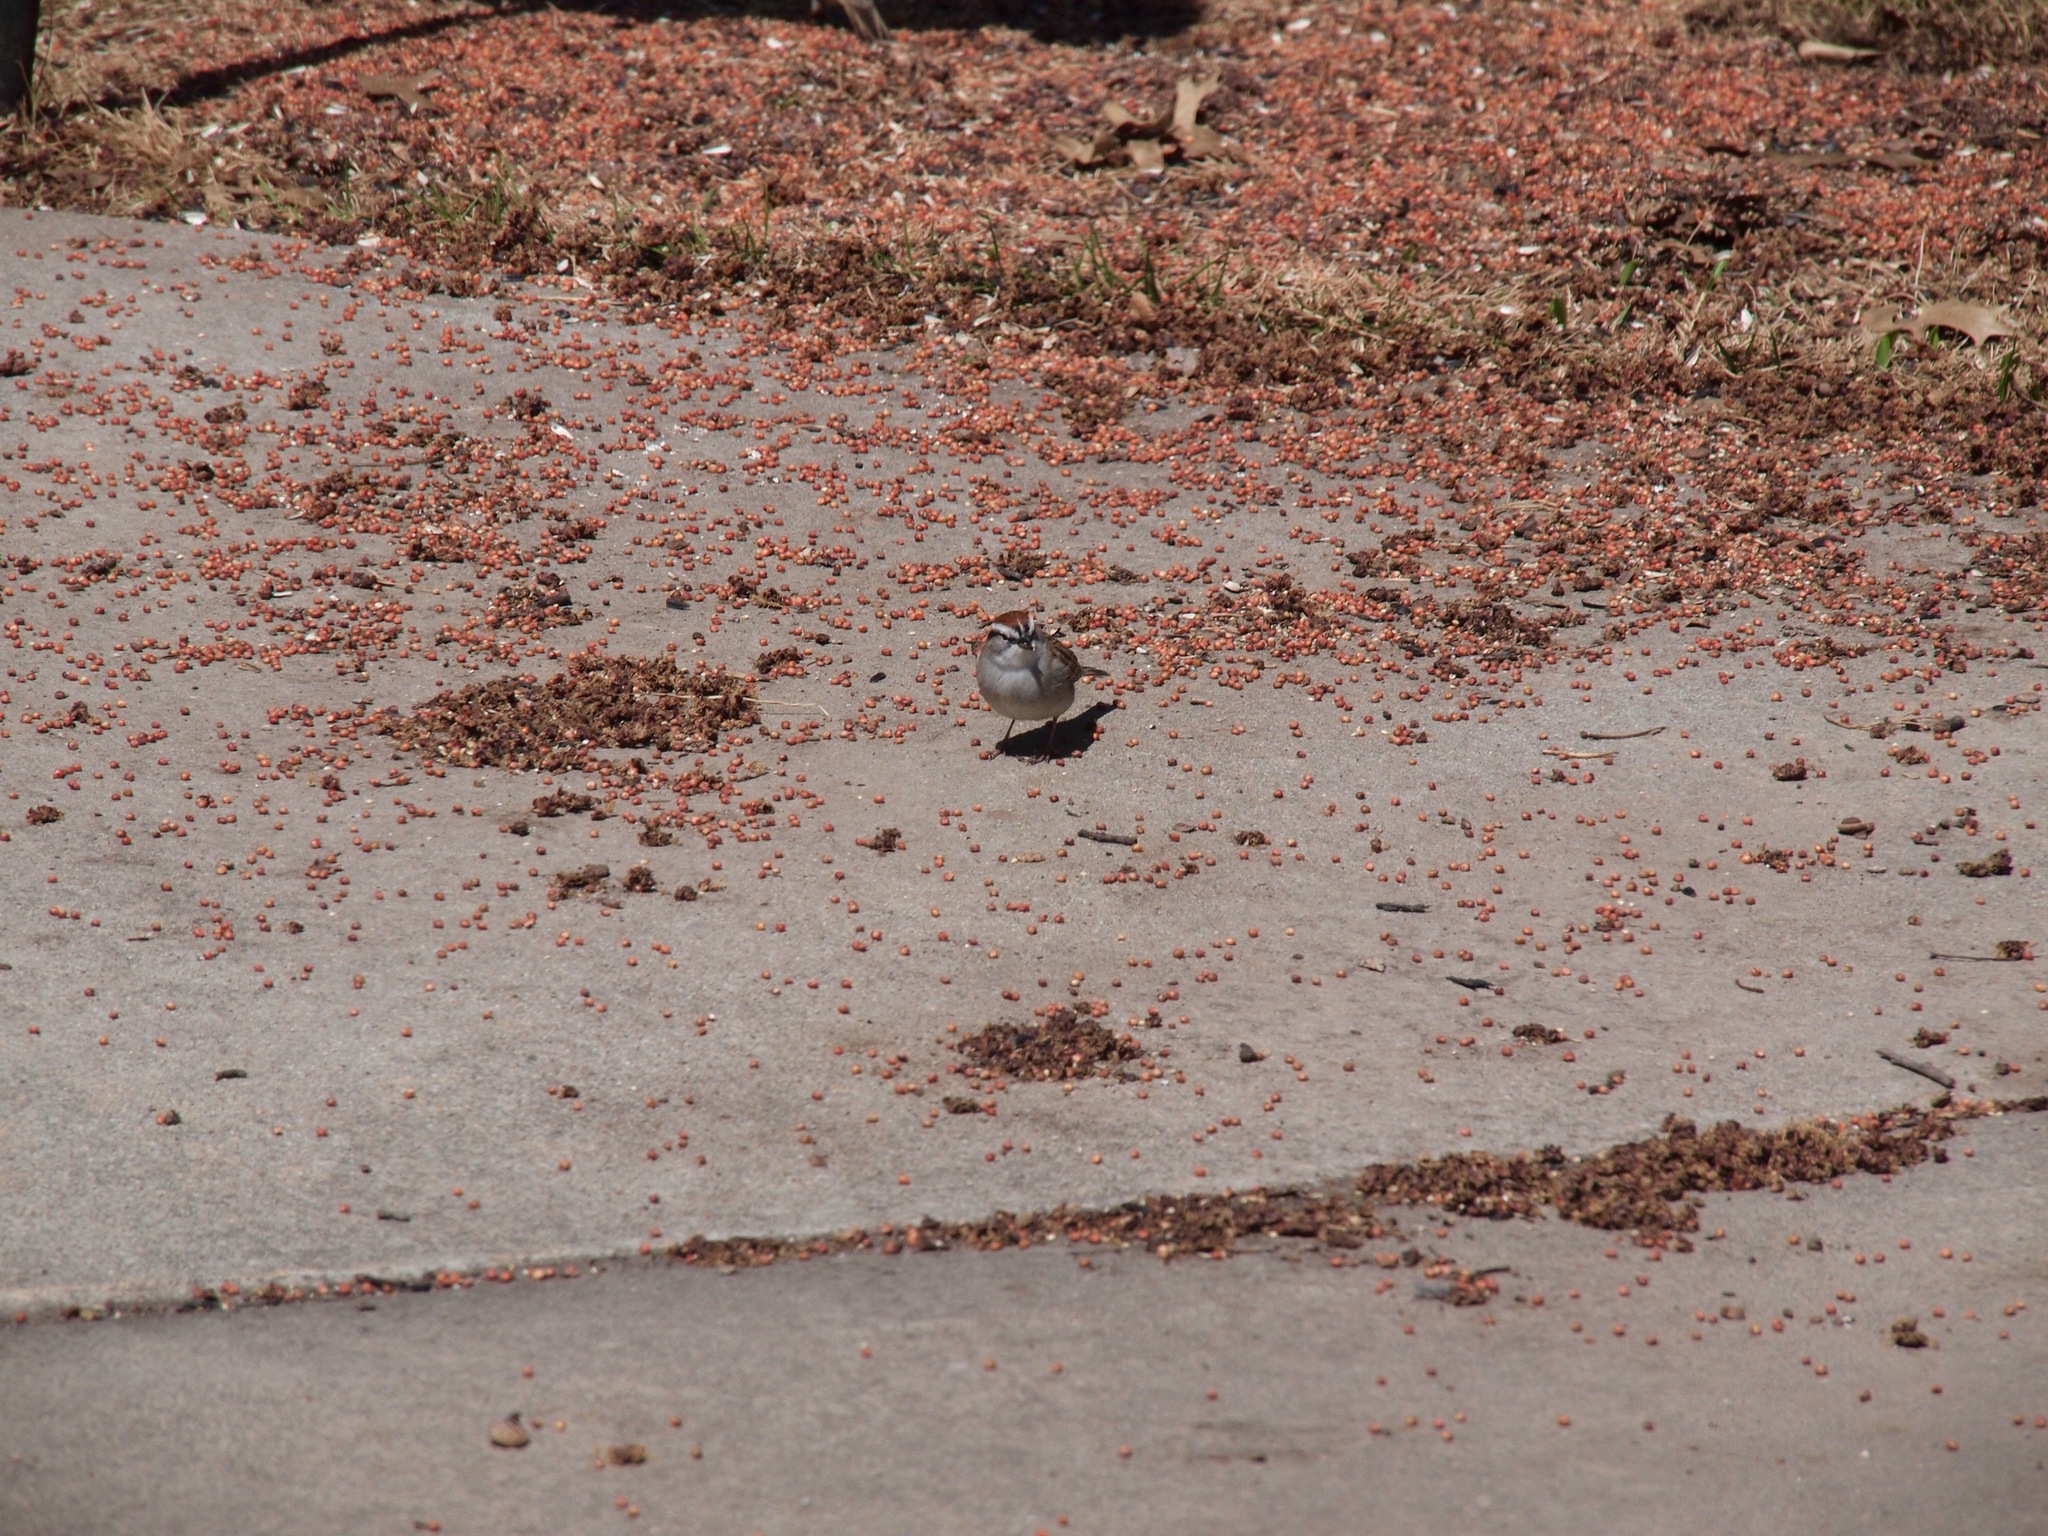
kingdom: Animalia
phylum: Chordata
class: Aves
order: Passeriformes
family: Passerellidae
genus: Spizella
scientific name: Spizella passerina
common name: Chipping sparrow
